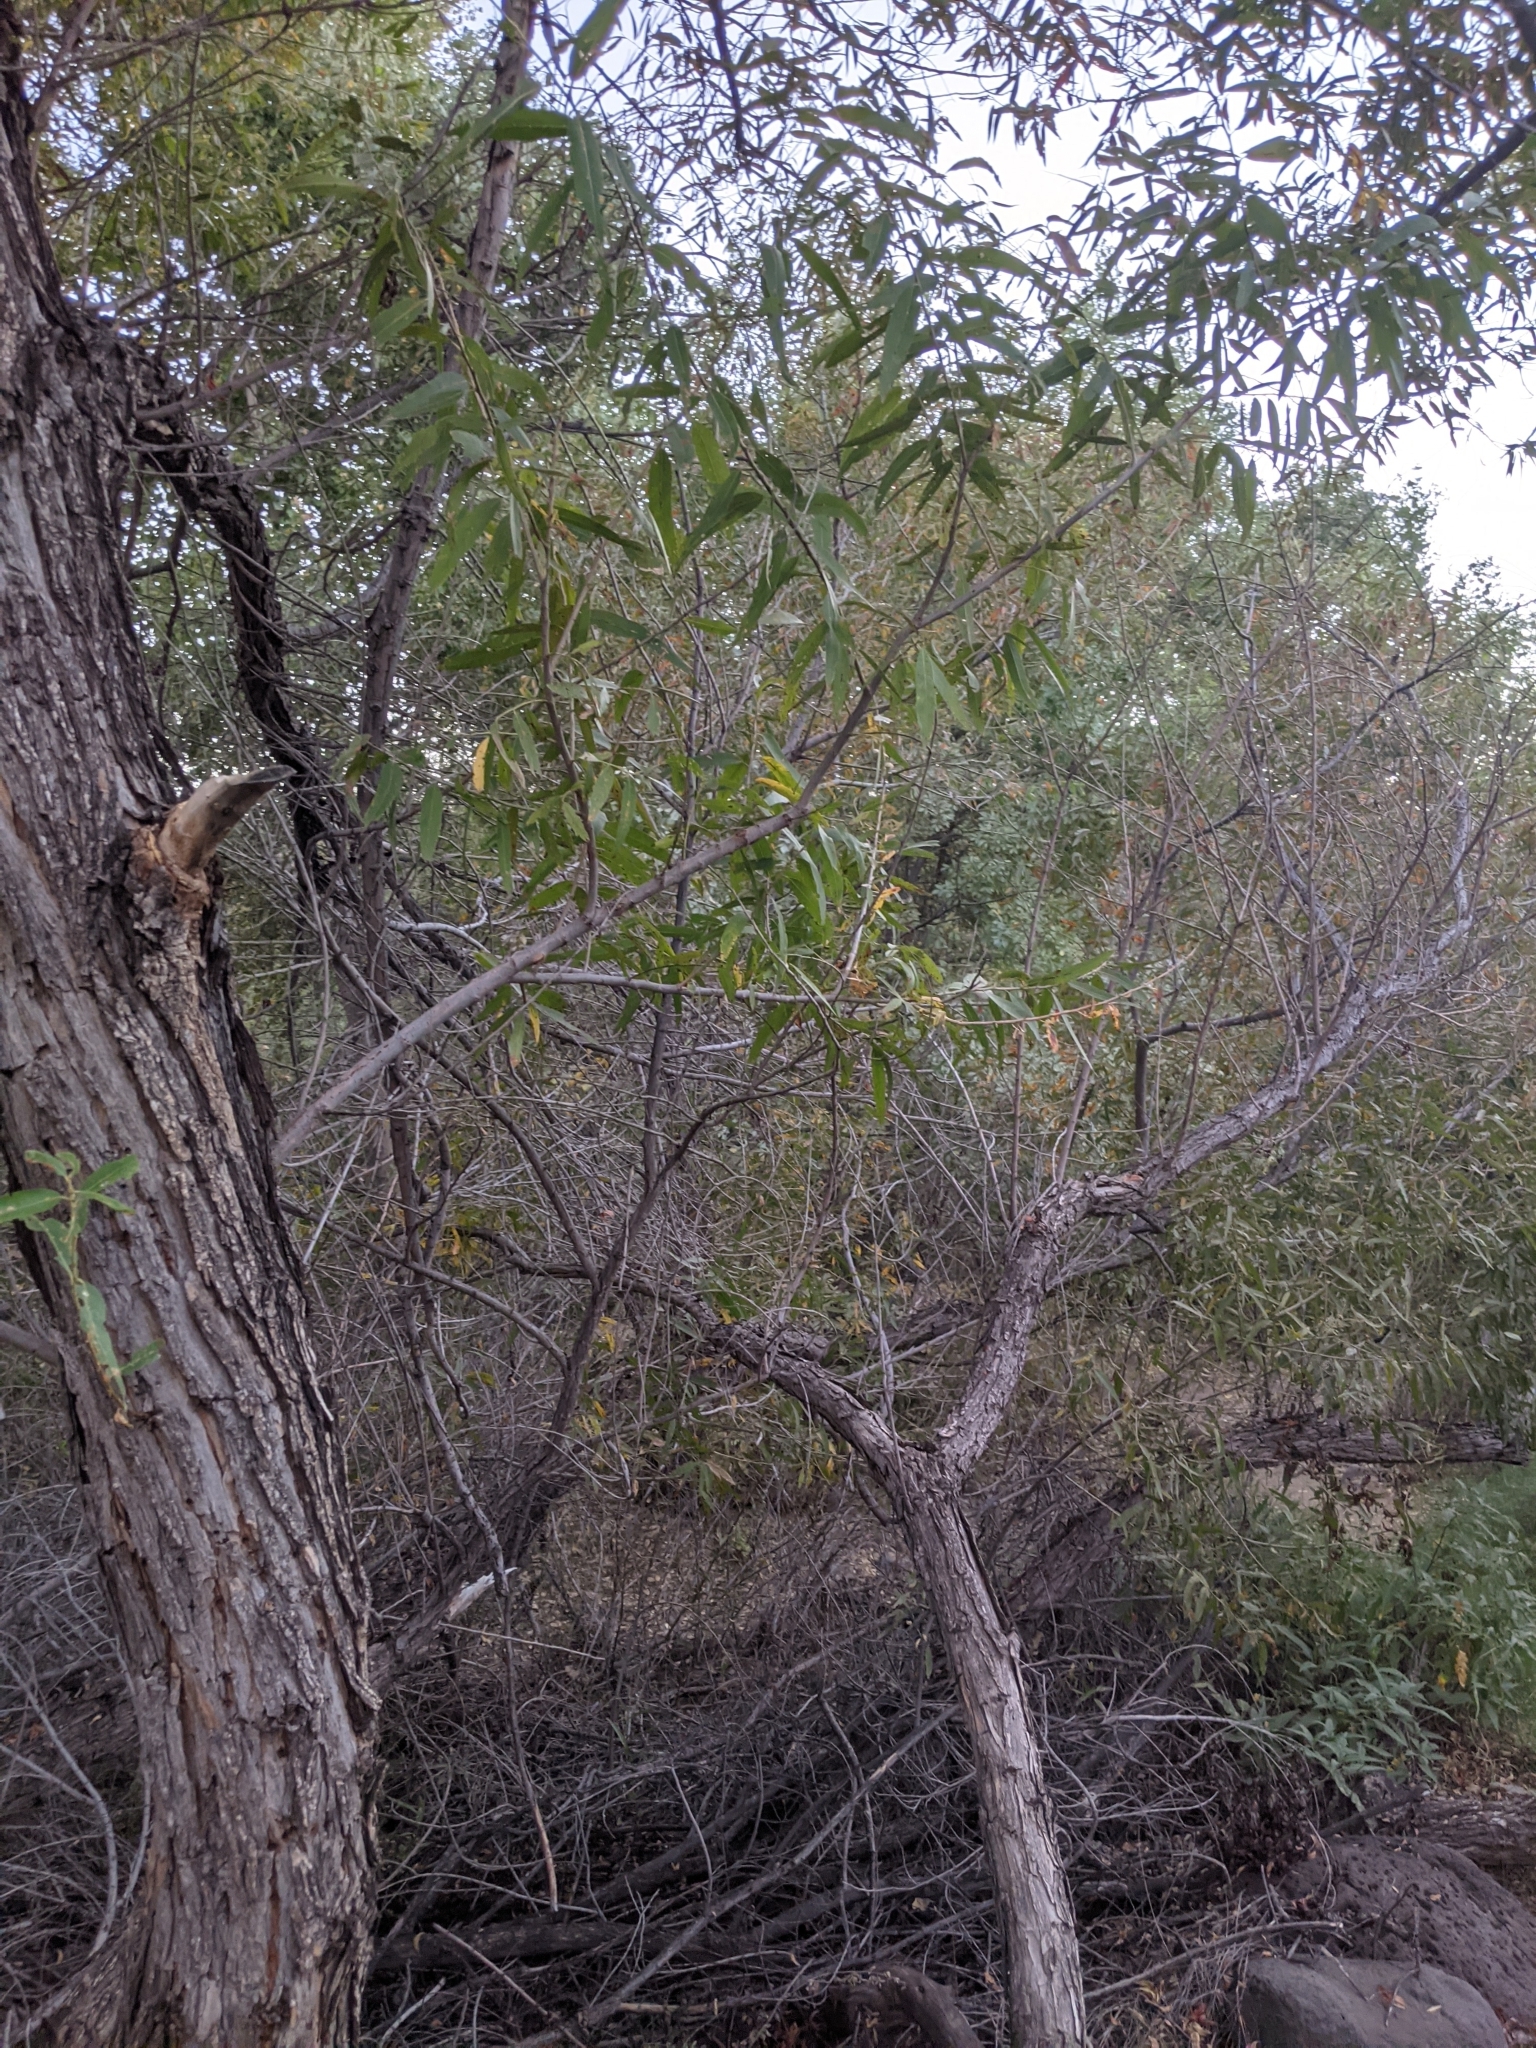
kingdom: Plantae
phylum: Tracheophyta
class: Magnoliopsida
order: Malpighiales
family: Salicaceae
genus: Salix
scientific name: Salix gooddingii
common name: Goodding's willow
